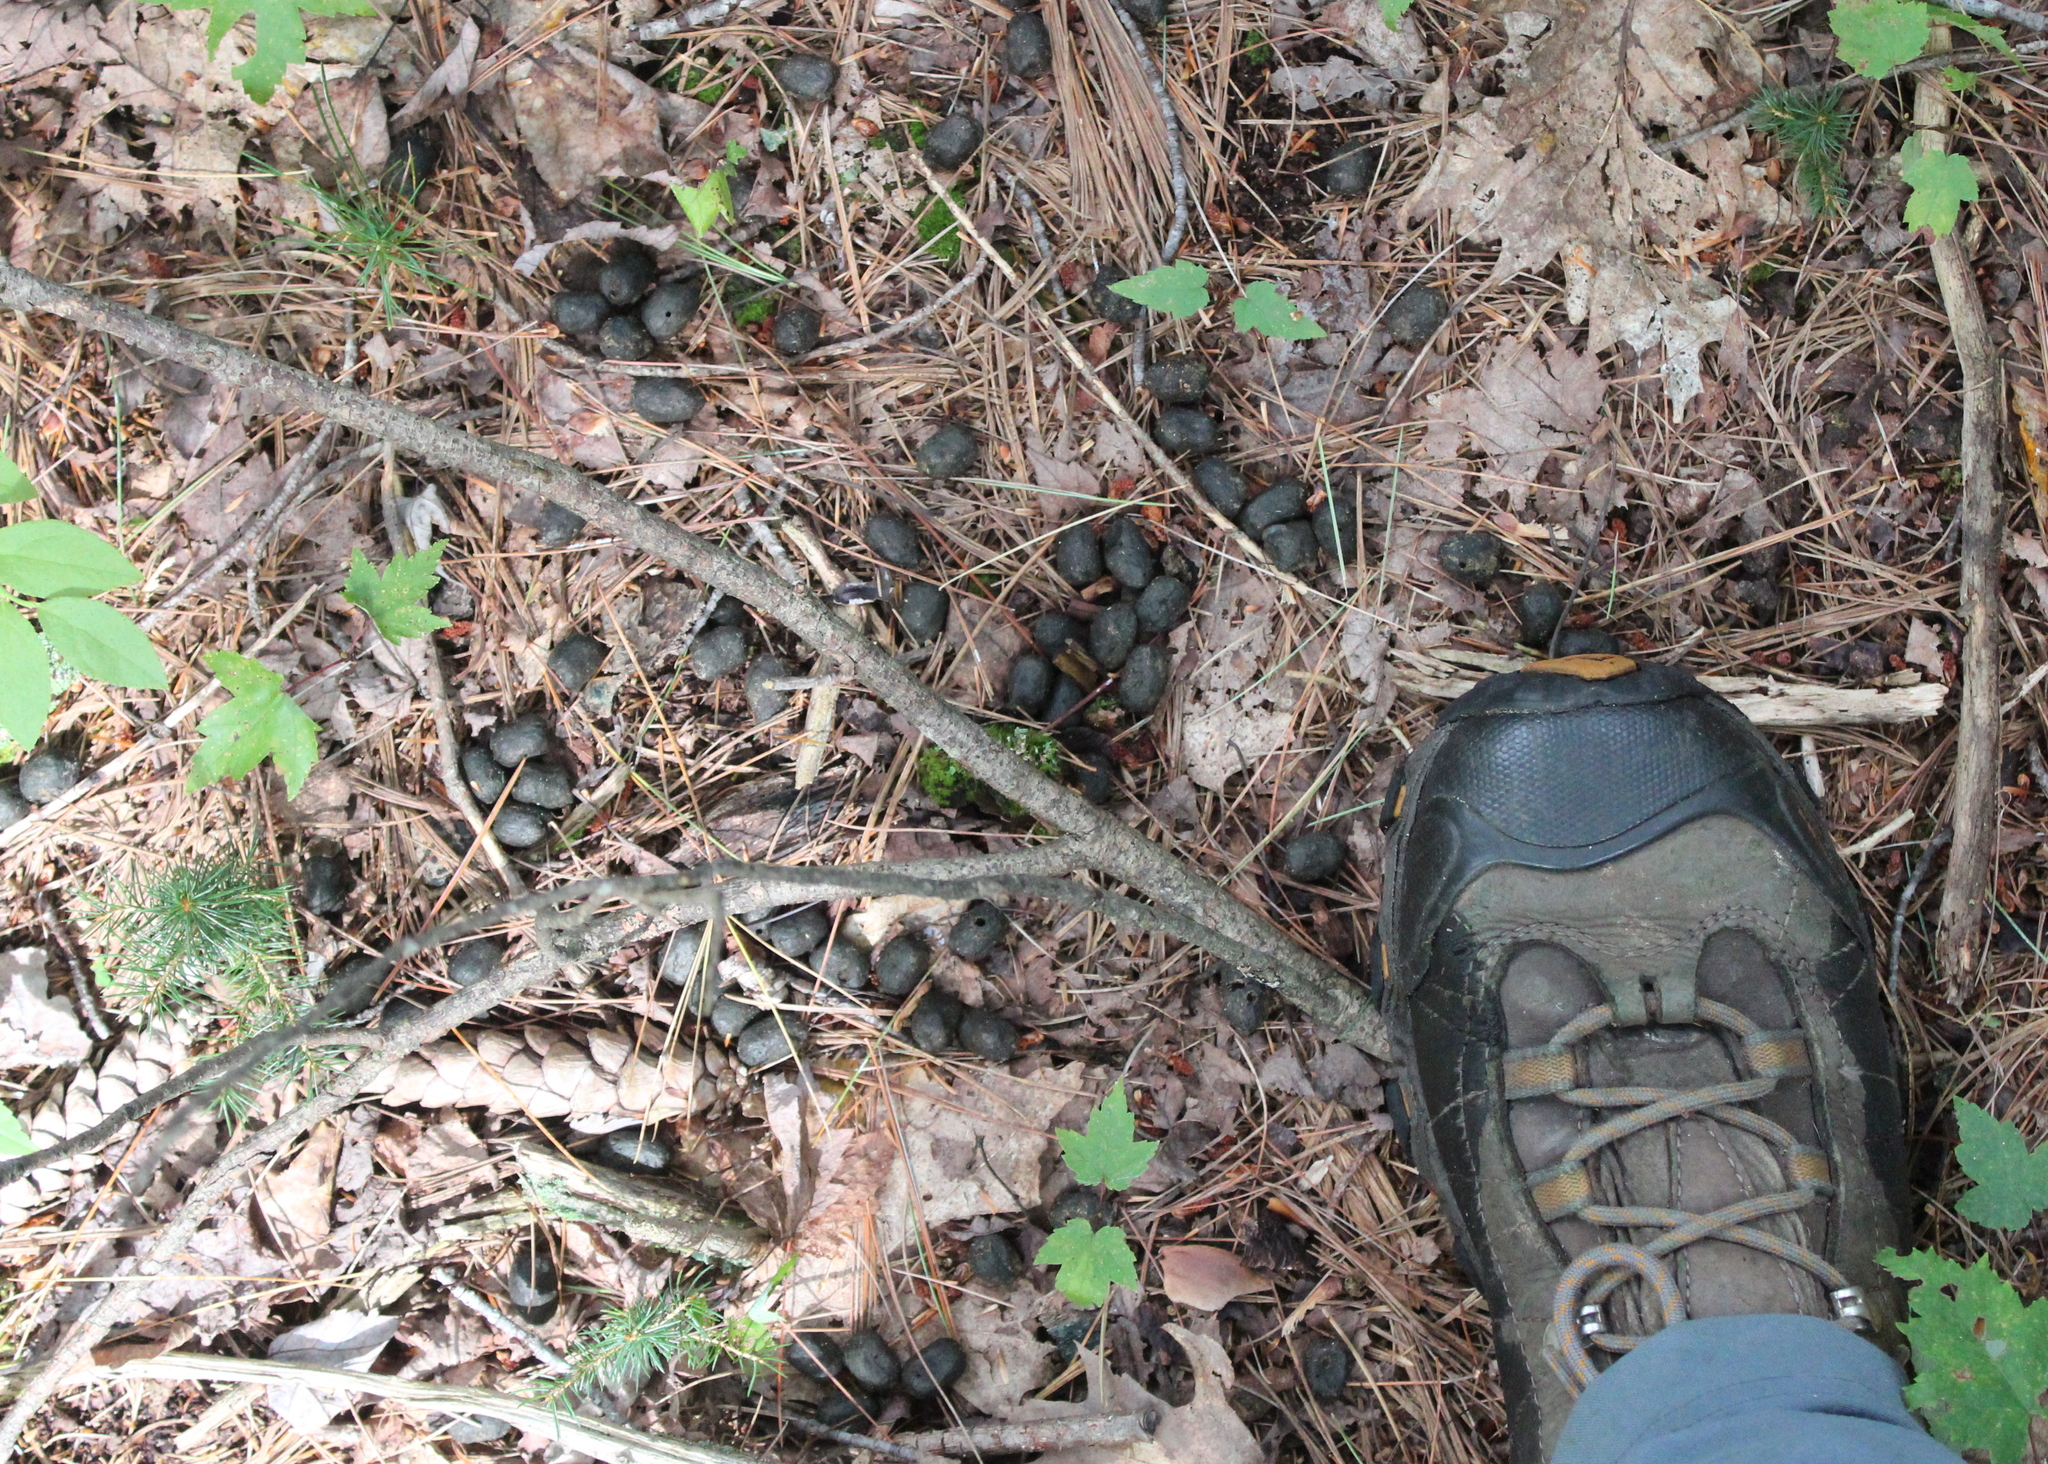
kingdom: Animalia
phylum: Chordata
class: Mammalia
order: Artiodactyla
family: Cervidae
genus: Odocoileus
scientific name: Odocoileus virginianus
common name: White-tailed deer
